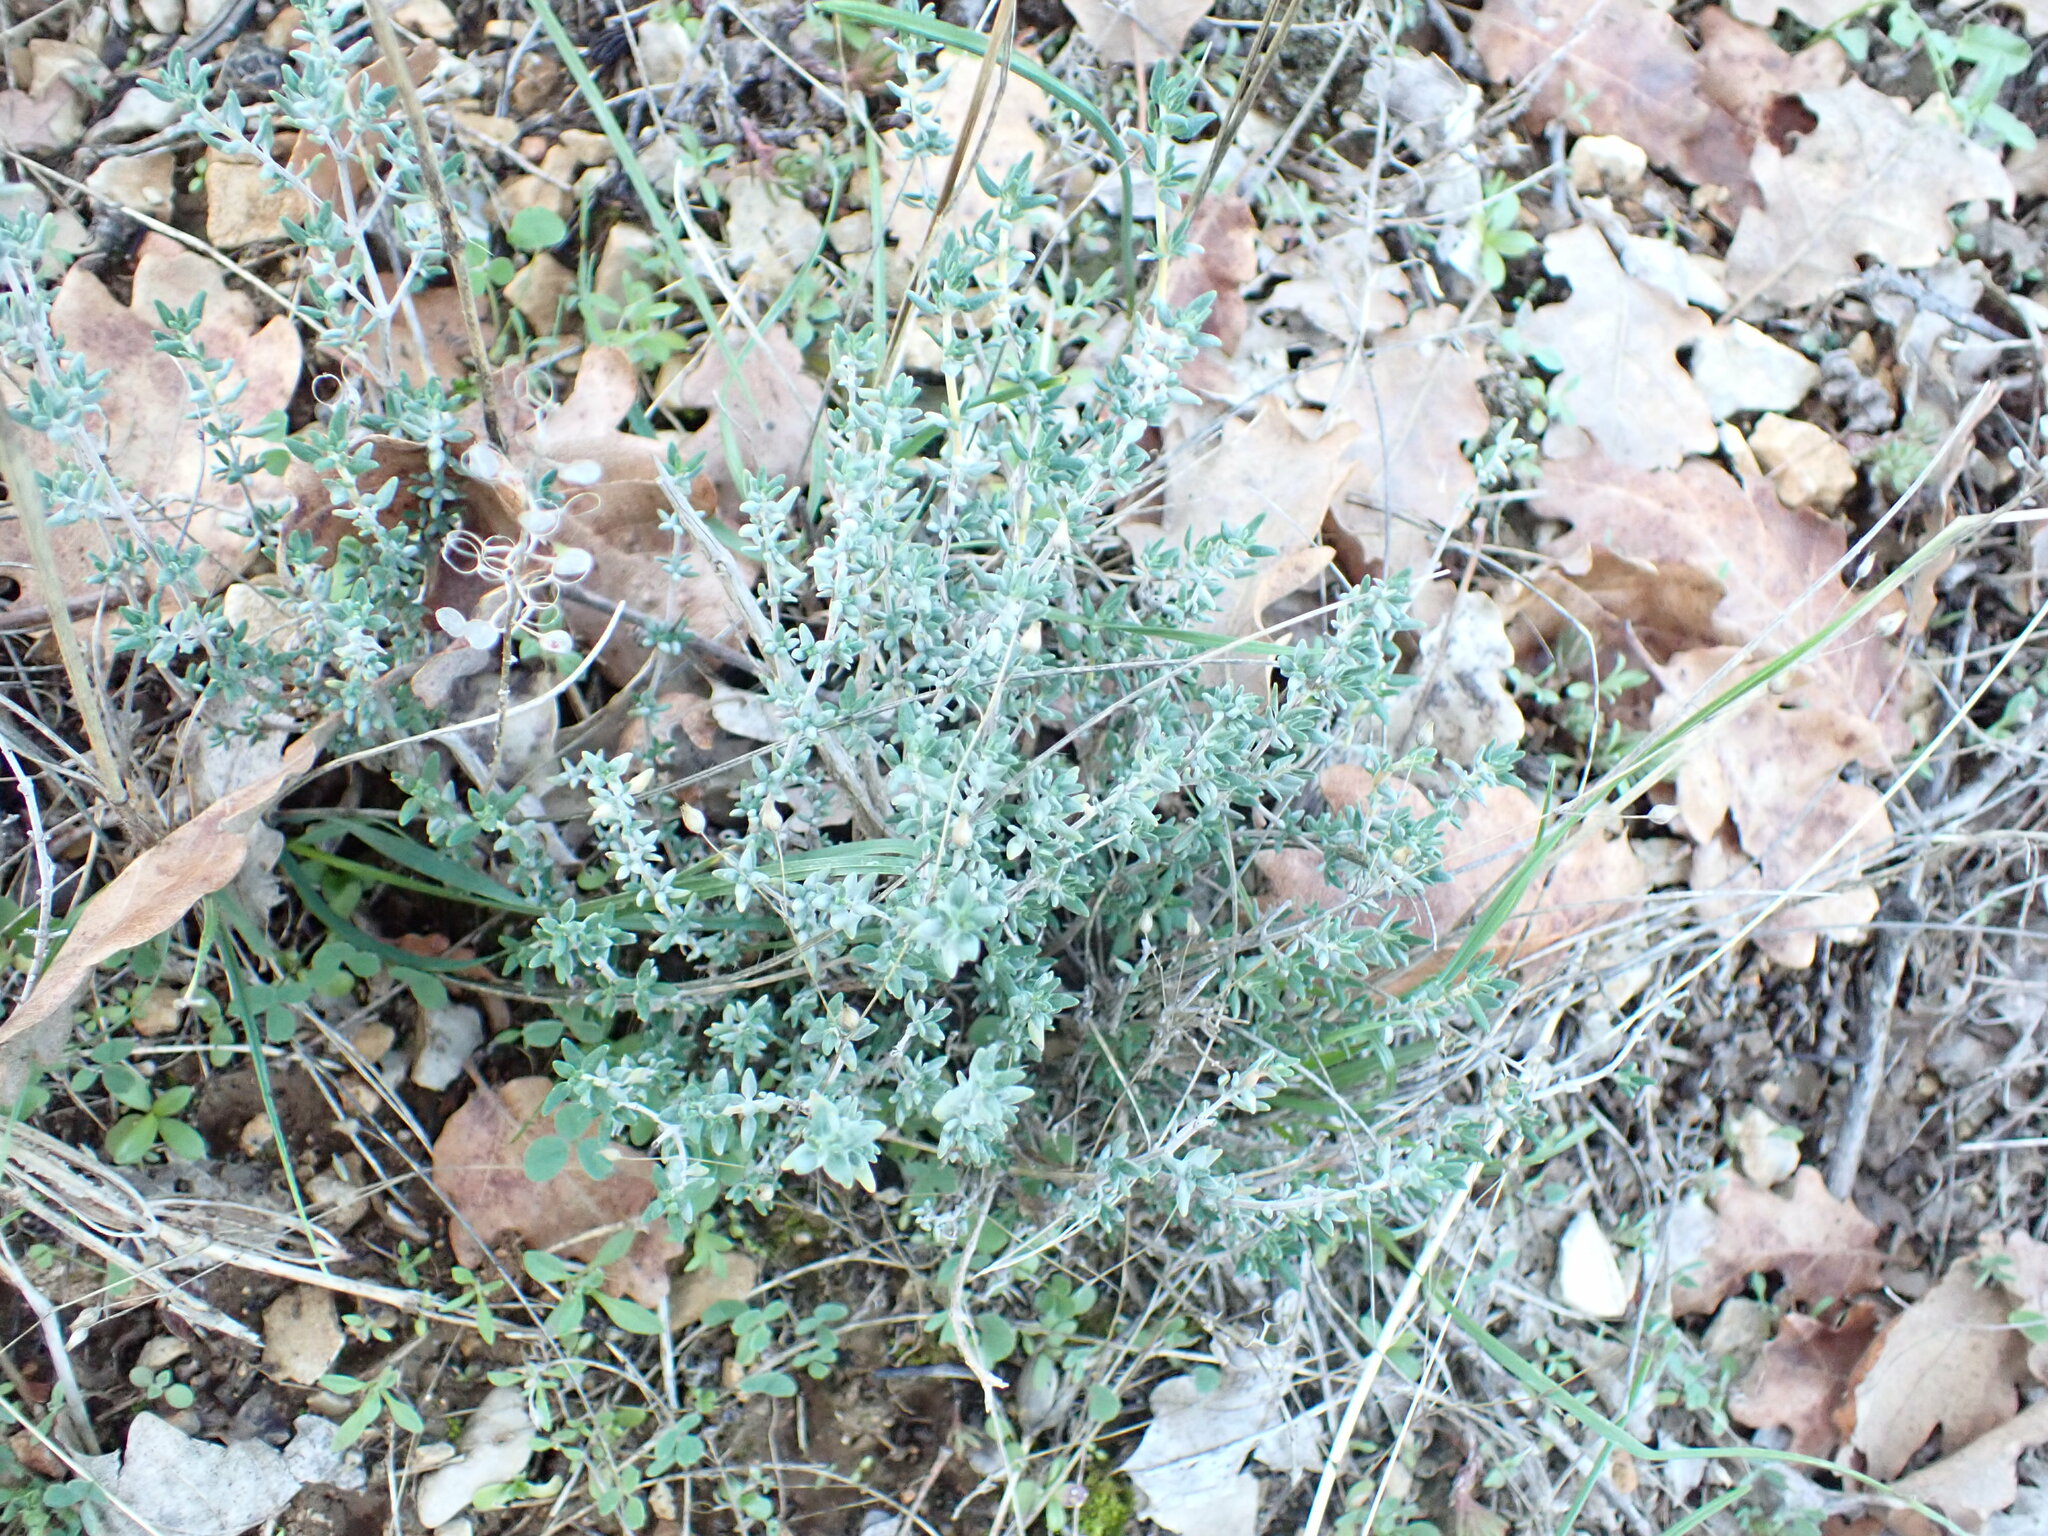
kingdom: Plantae
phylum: Tracheophyta
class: Magnoliopsida
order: Lamiales
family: Lamiaceae
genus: Thymus
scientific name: Thymus vulgaris
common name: Garden thyme
